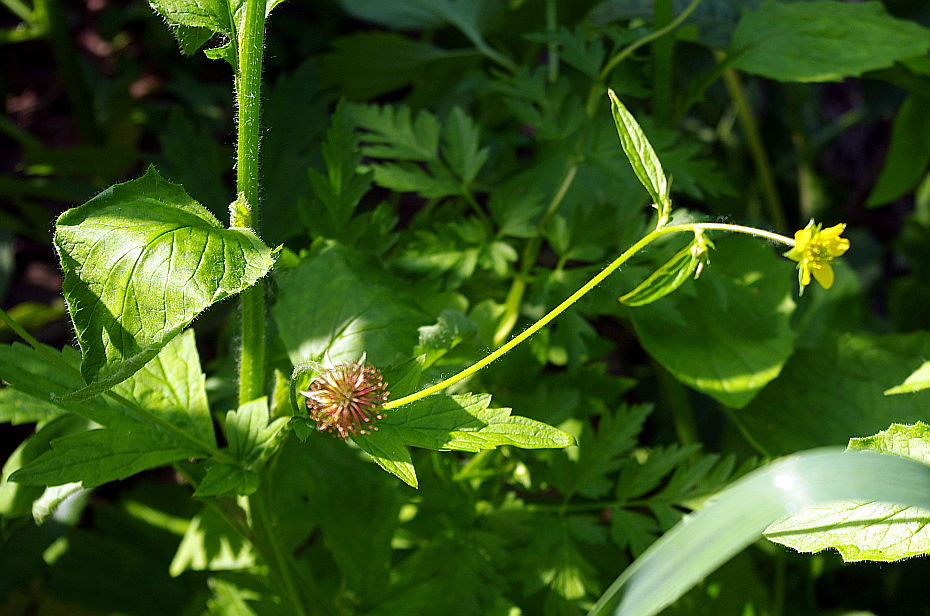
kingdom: Plantae
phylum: Tracheophyta
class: Magnoliopsida
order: Rosales
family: Rosaceae
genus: Geum
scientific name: Geum urbanum
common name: Wood avens
